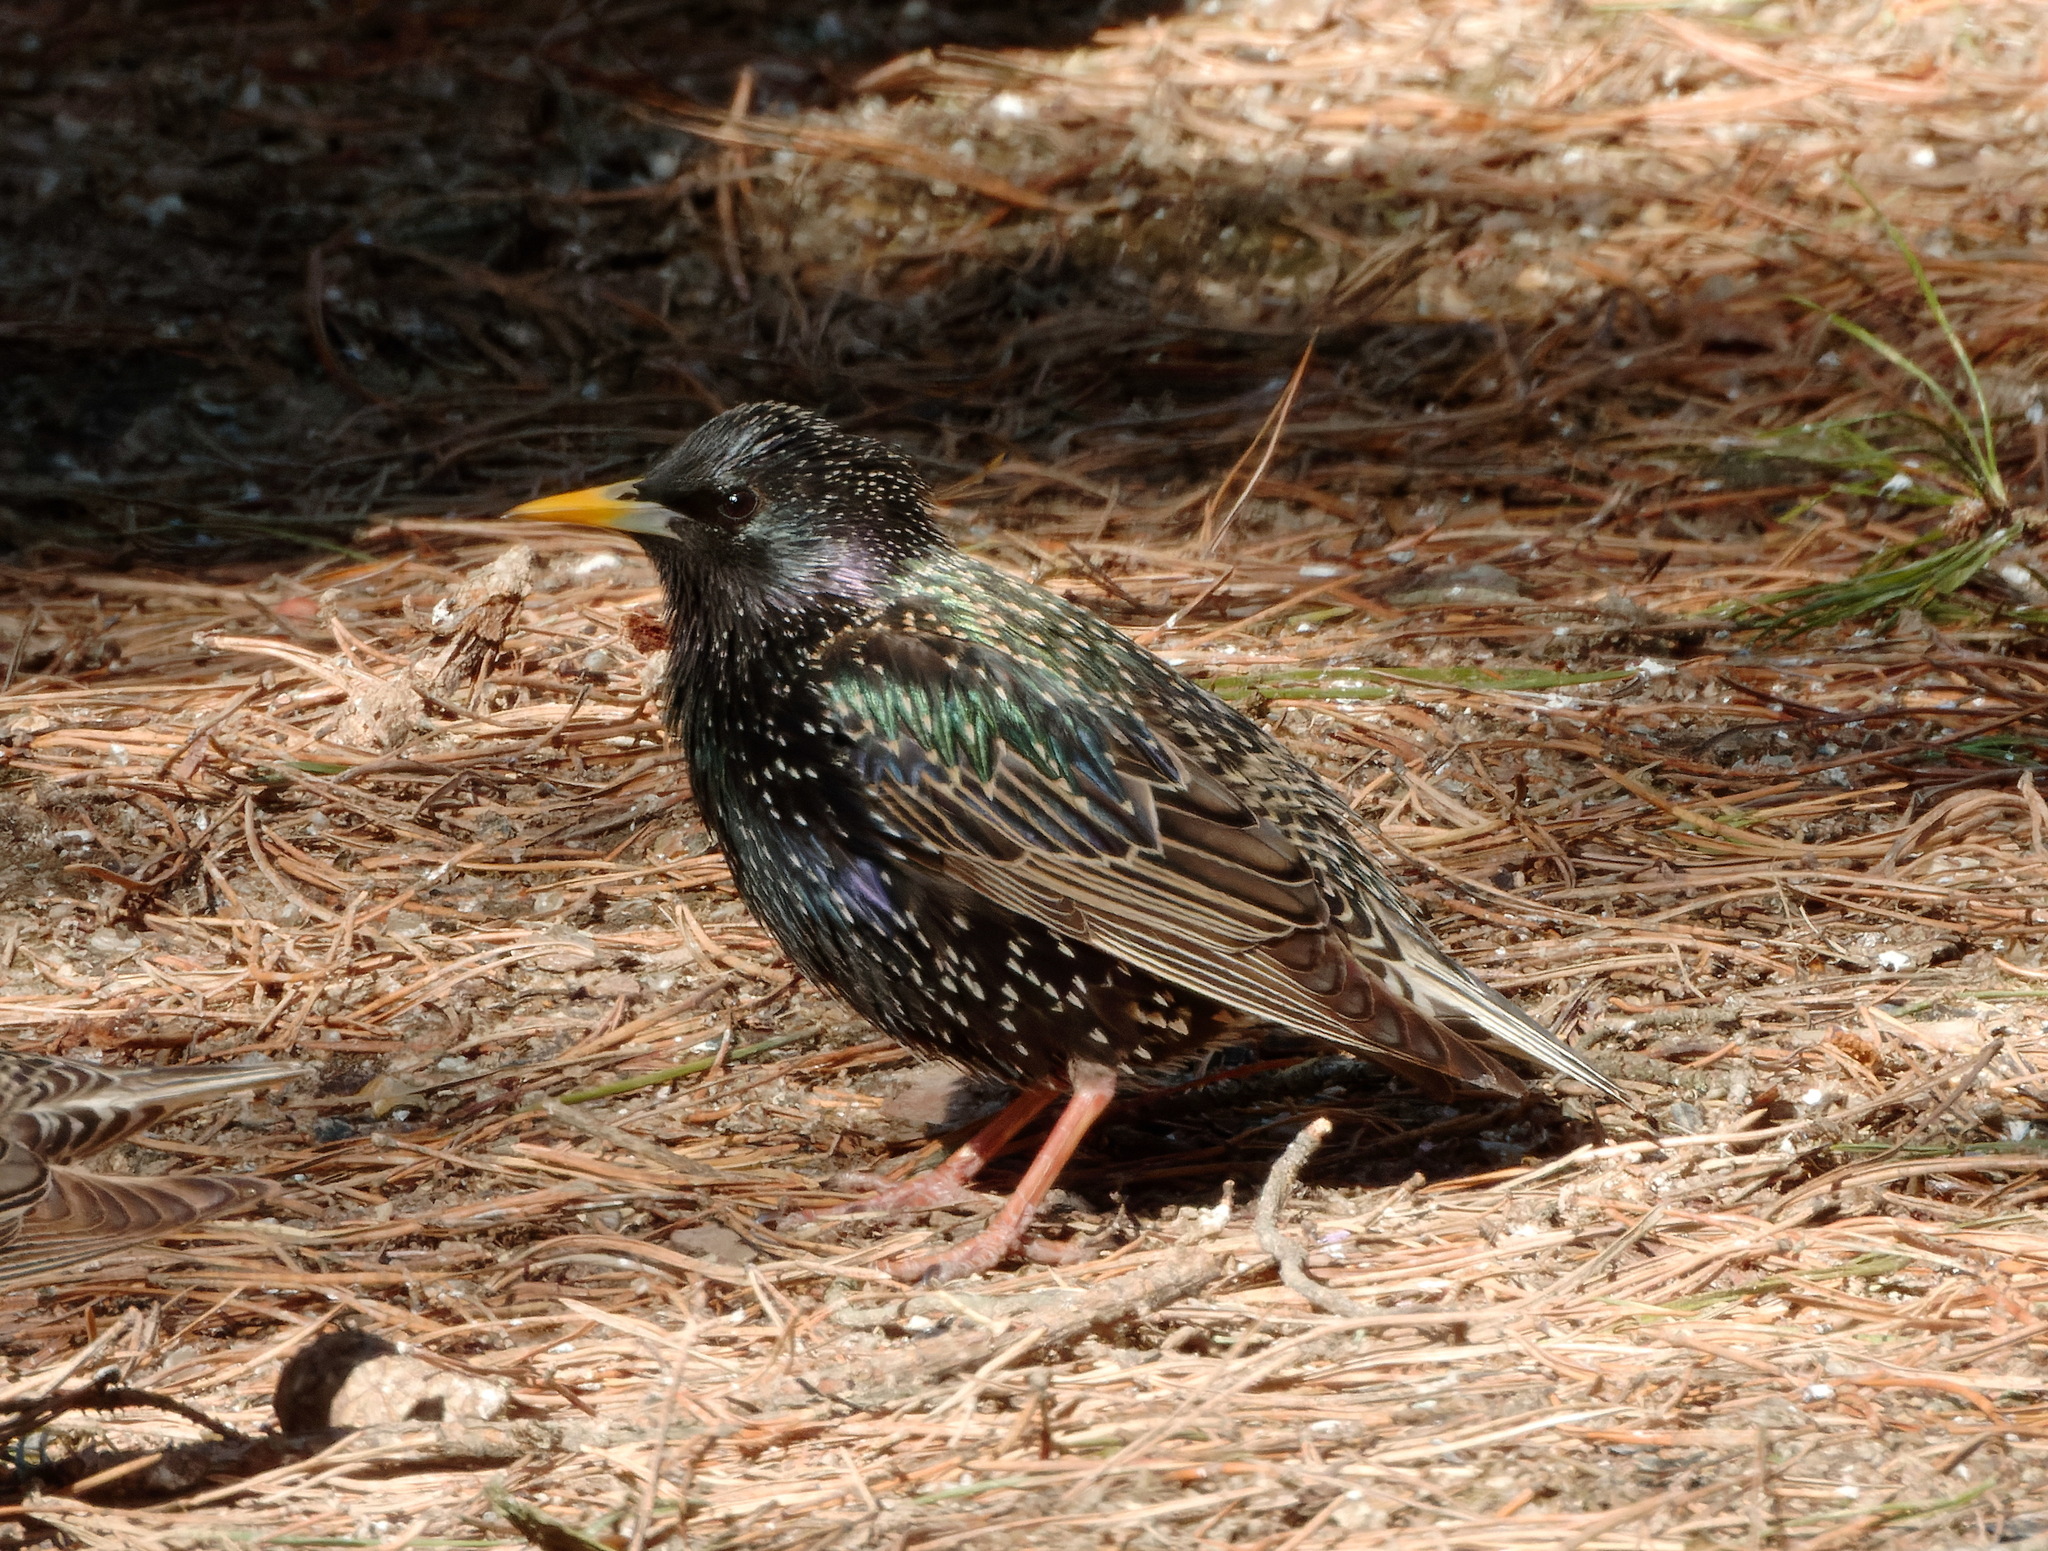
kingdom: Animalia
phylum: Chordata
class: Aves
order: Passeriformes
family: Sturnidae
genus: Sturnus
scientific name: Sturnus vulgaris
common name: Common starling
